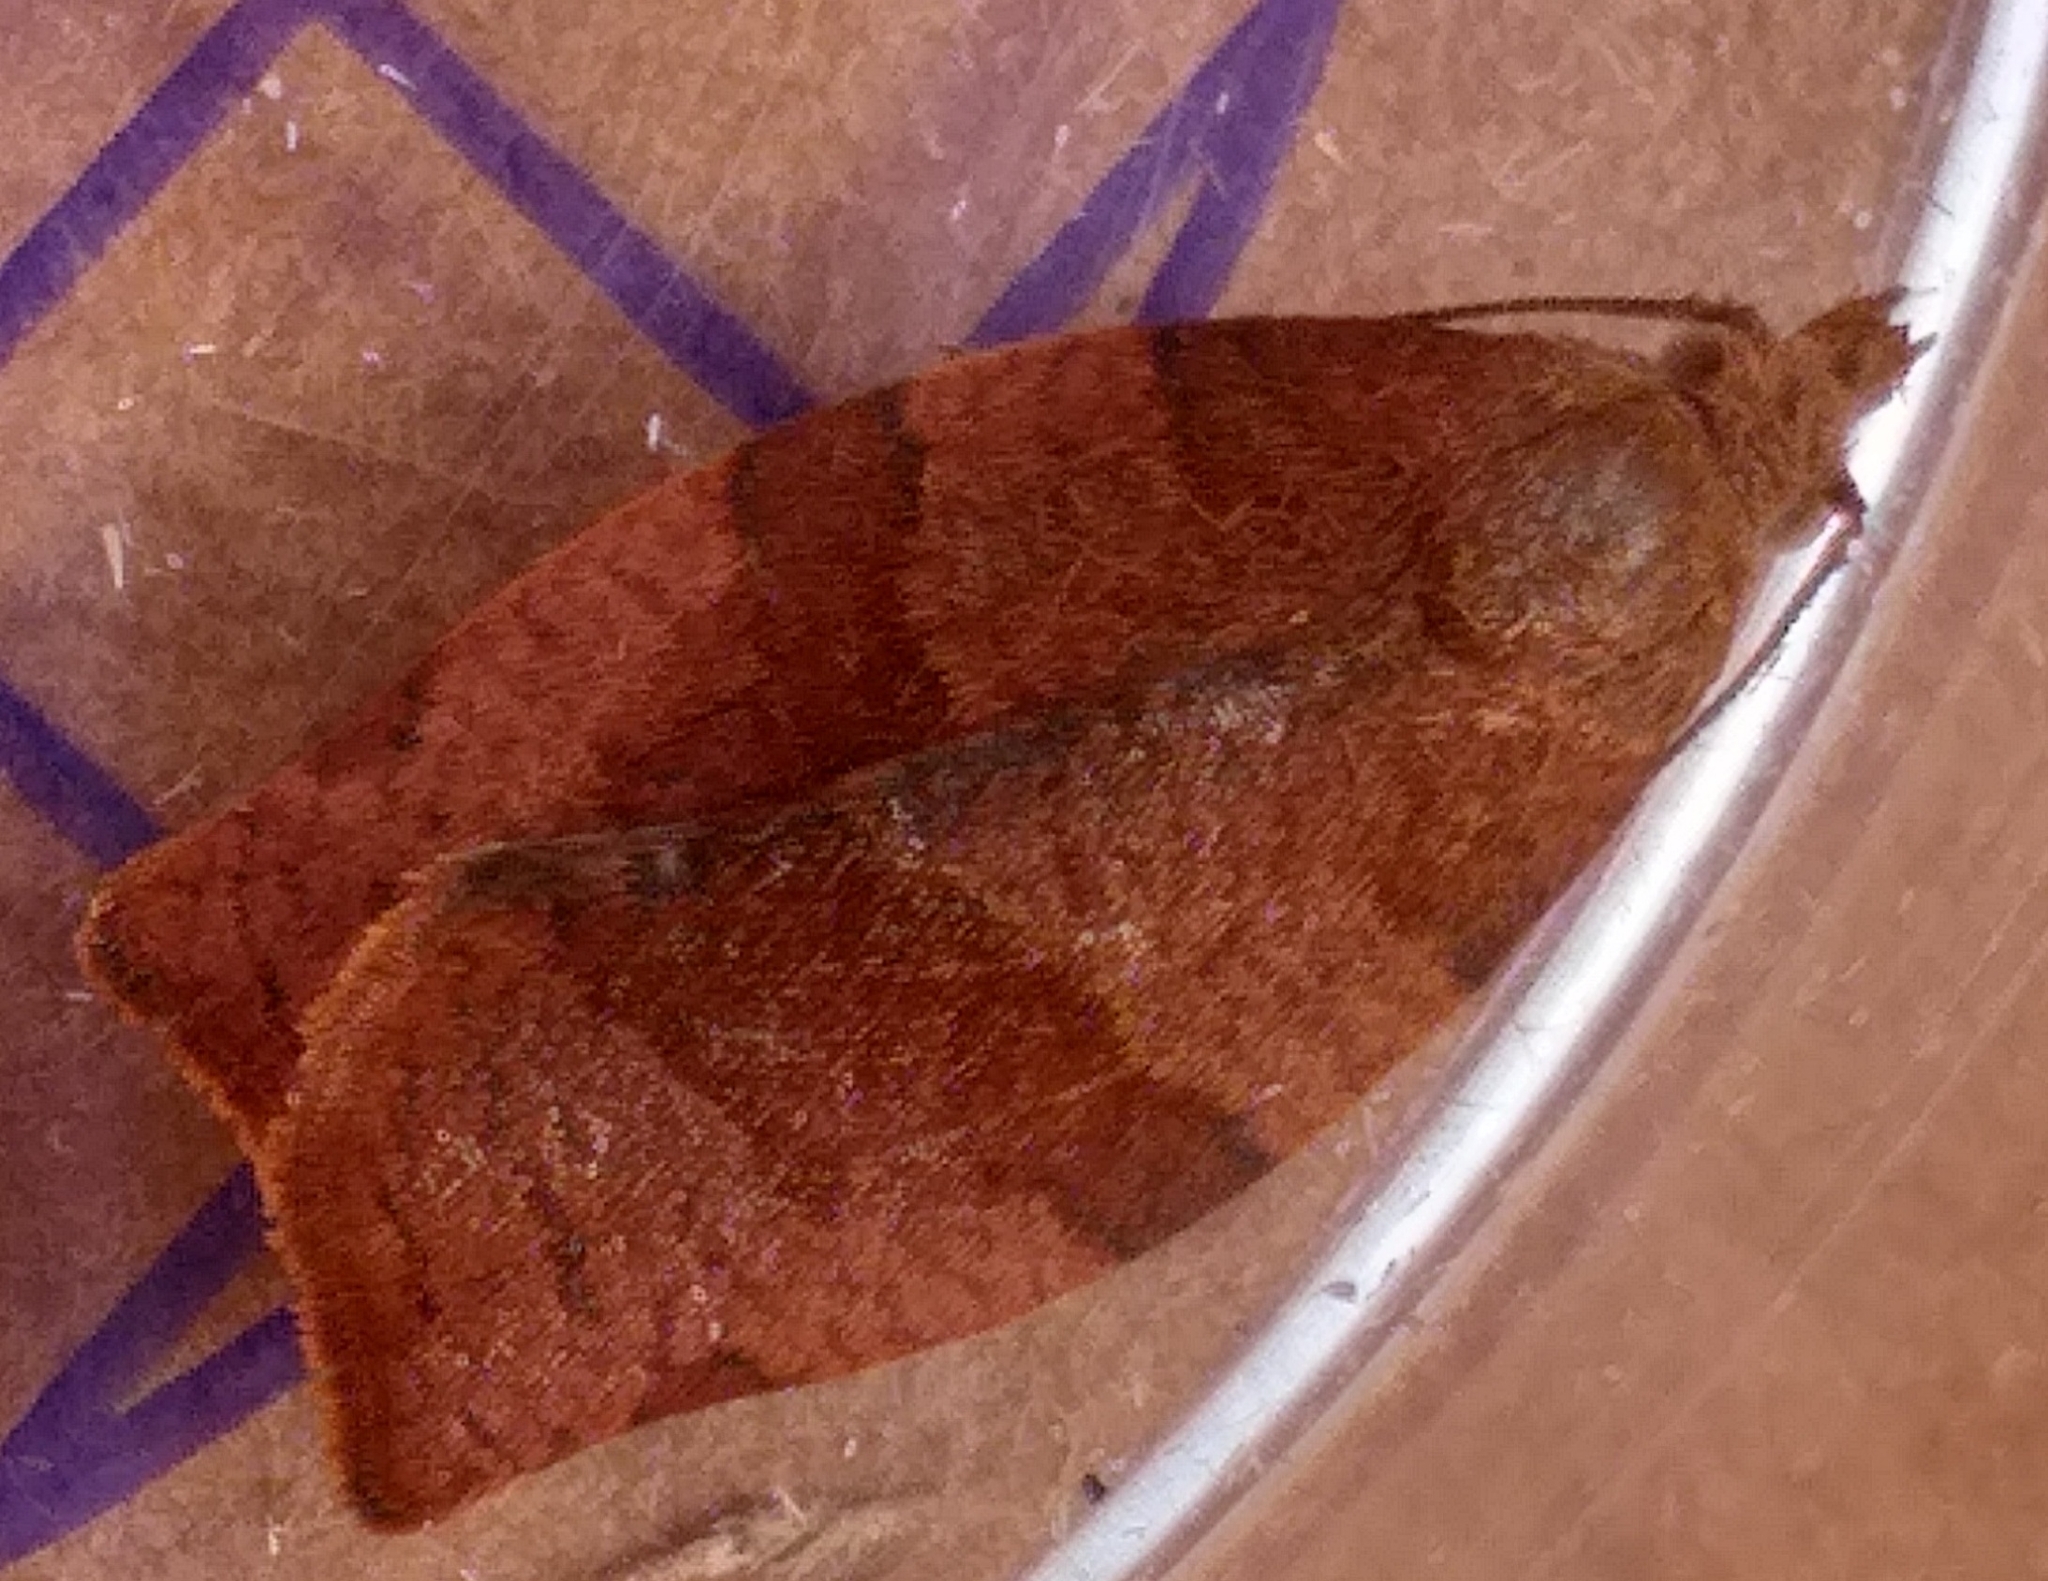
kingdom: Animalia
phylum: Arthropoda
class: Insecta
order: Lepidoptera
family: Tortricidae
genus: Pandemis
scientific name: Pandemis heparana
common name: Dark fruit-tree tortrix
